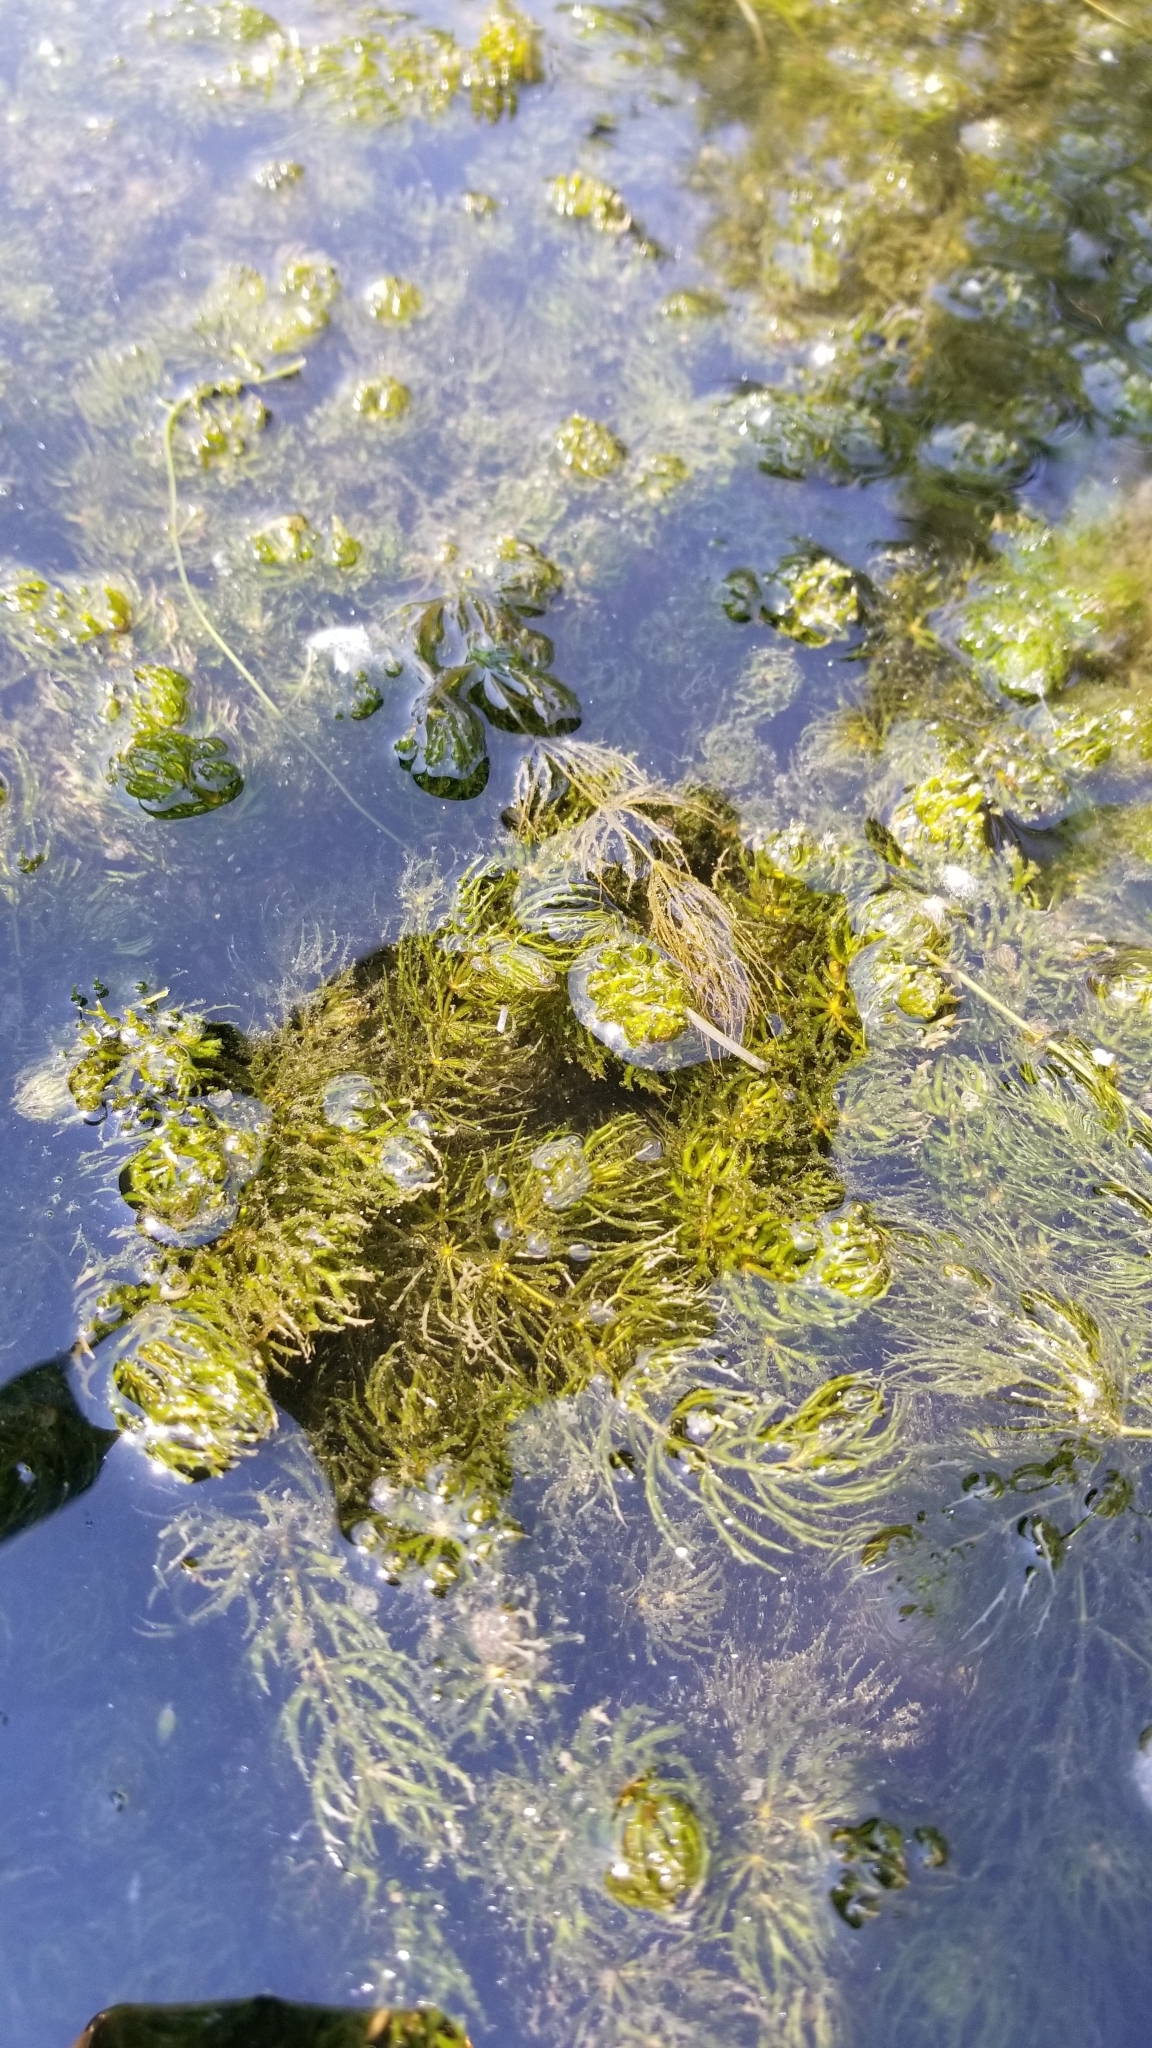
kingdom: Plantae
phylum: Tracheophyta
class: Magnoliopsida
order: Ceratophyllales
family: Ceratophyllaceae
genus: Ceratophyllum
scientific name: Ceratophyllum demersum
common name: Rigid hornwort
